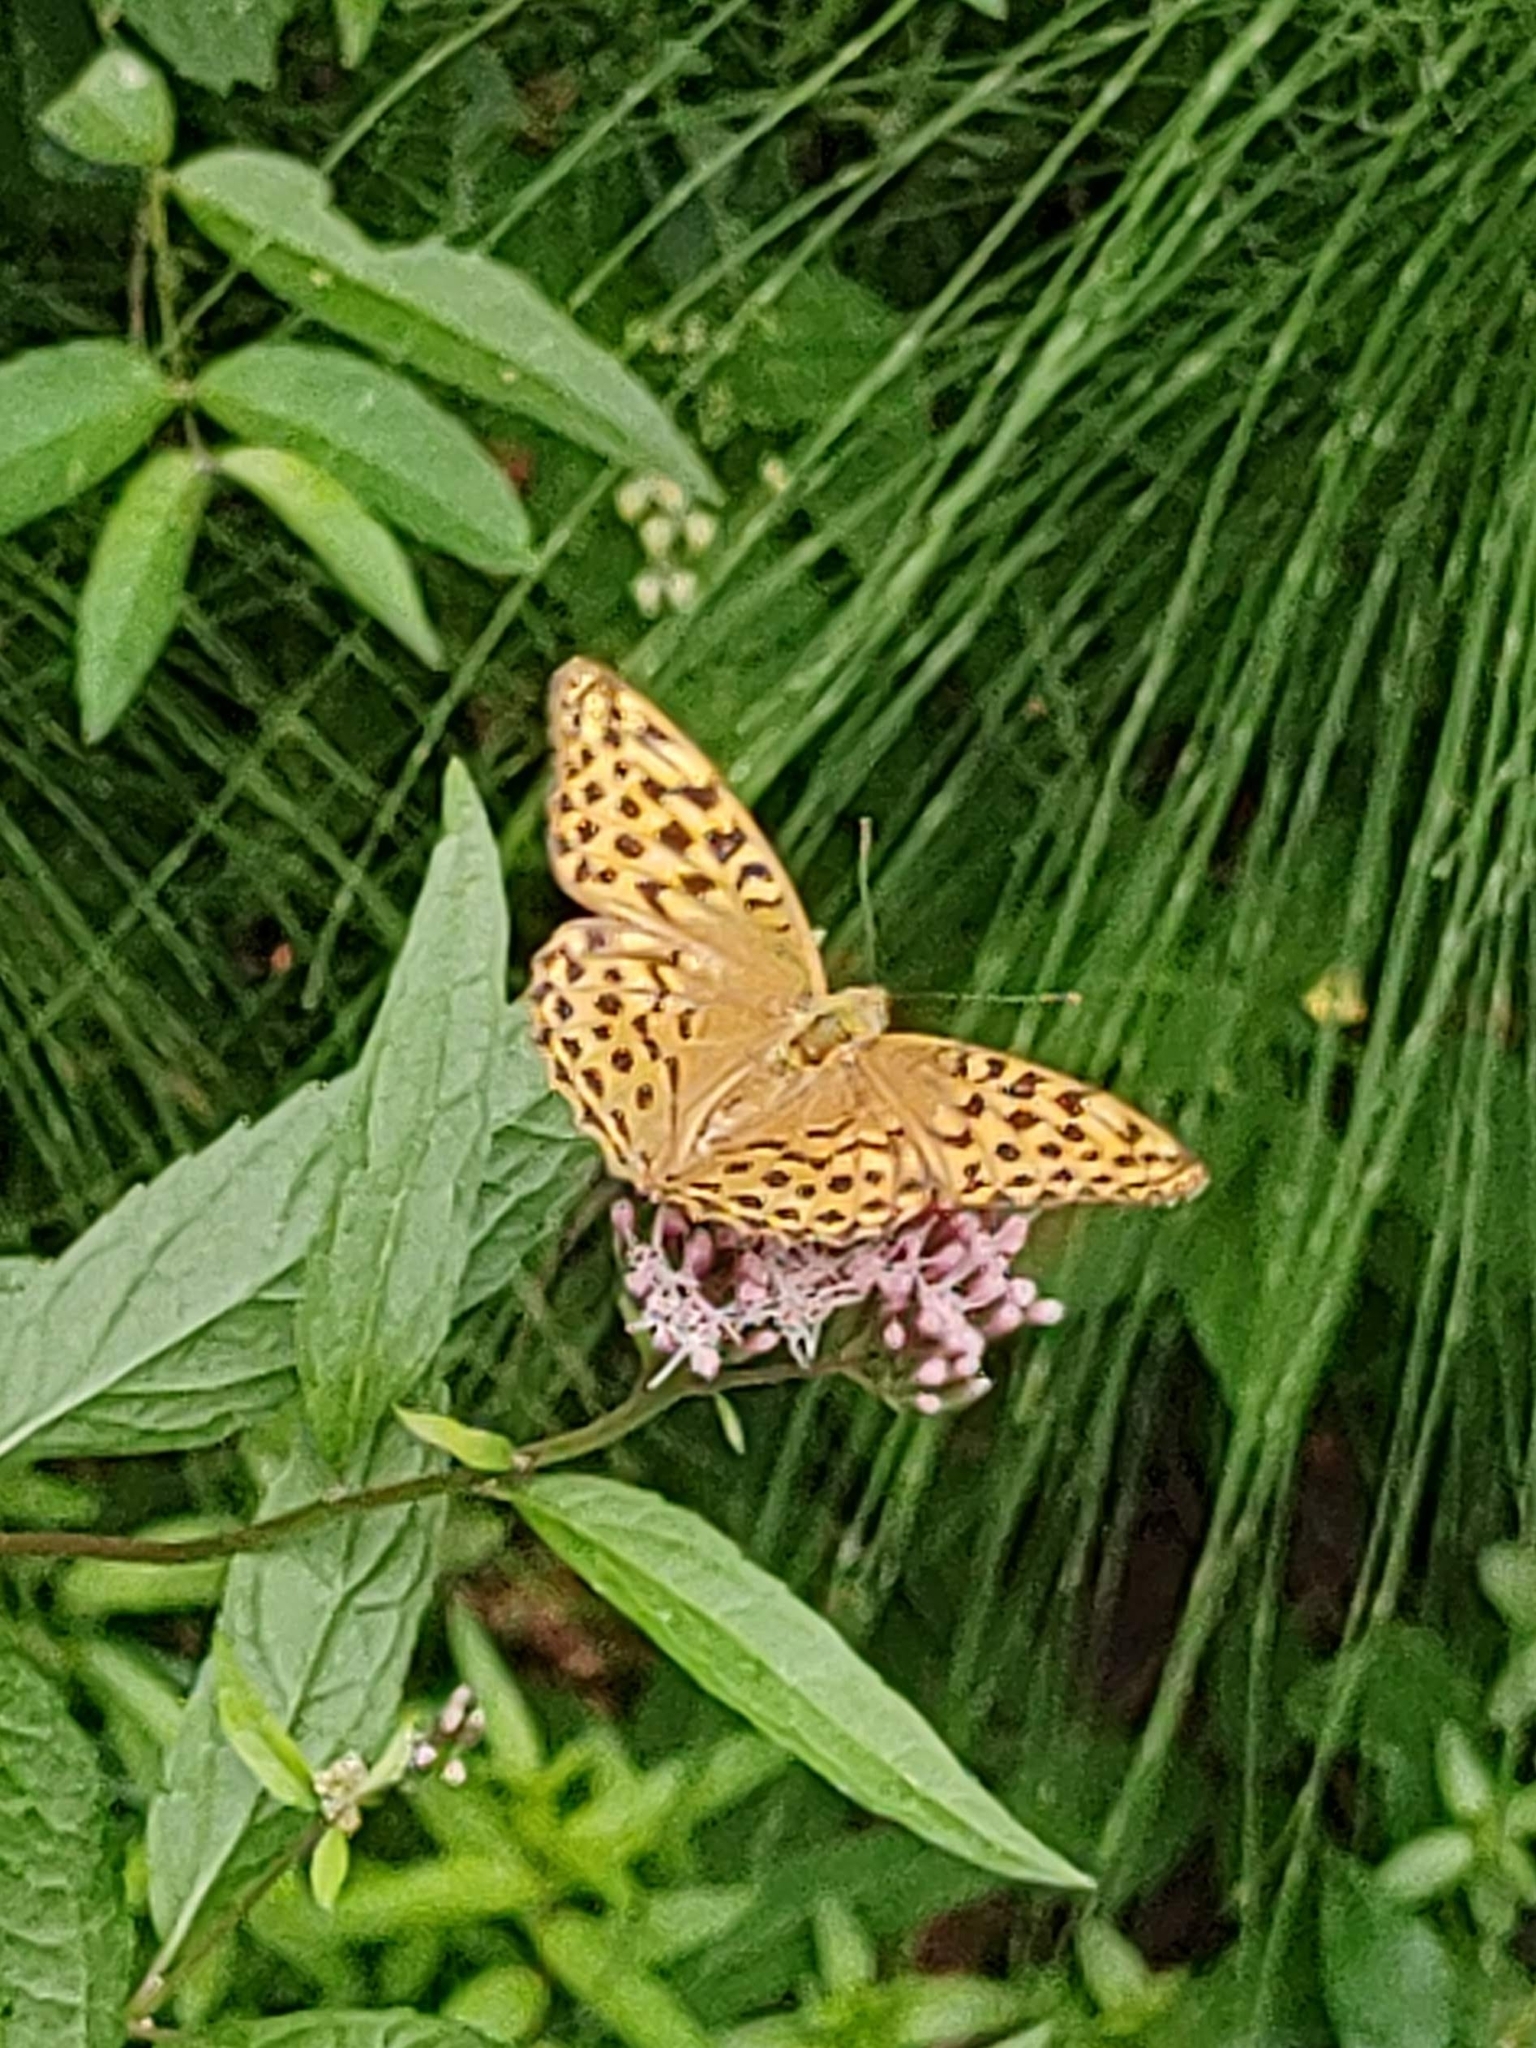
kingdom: Animalia
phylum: Arthropoda
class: Insecta
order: Lepidoptera
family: Nymphalidae
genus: Argynnis
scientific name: Argynnis paphia
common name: Silver-washed fritillary
